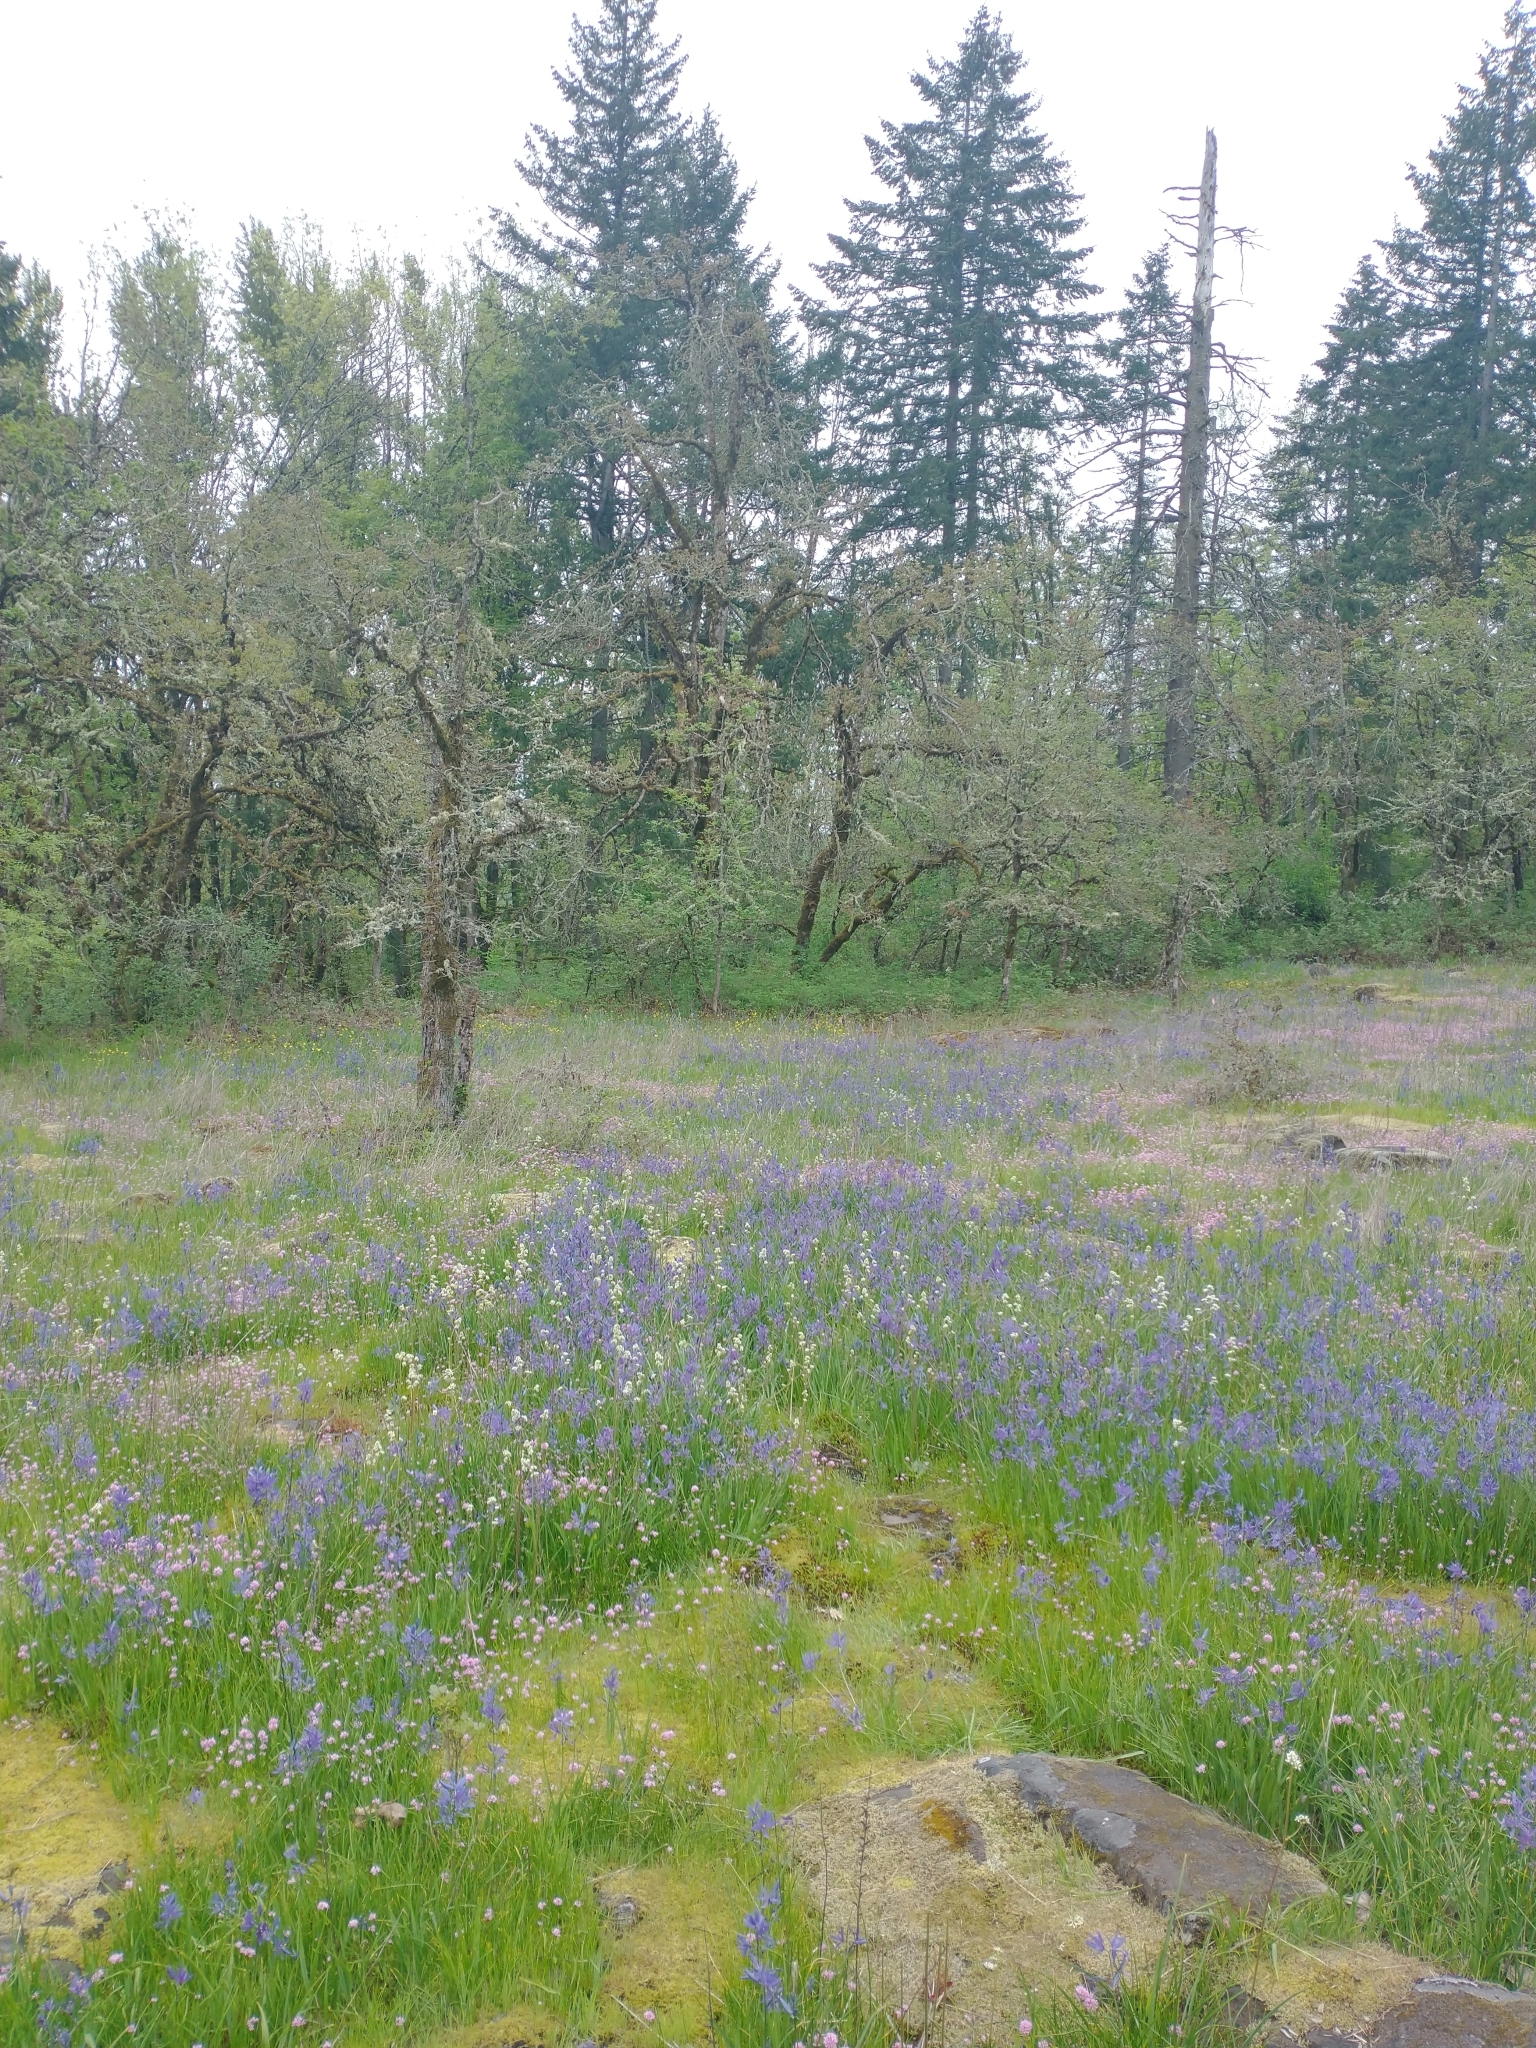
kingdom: Plantae
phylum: Tracheophyta
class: Magnoliopsida
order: Fagales
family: Fagaceae
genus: Quercus
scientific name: Quercus garryana
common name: Garry oak
